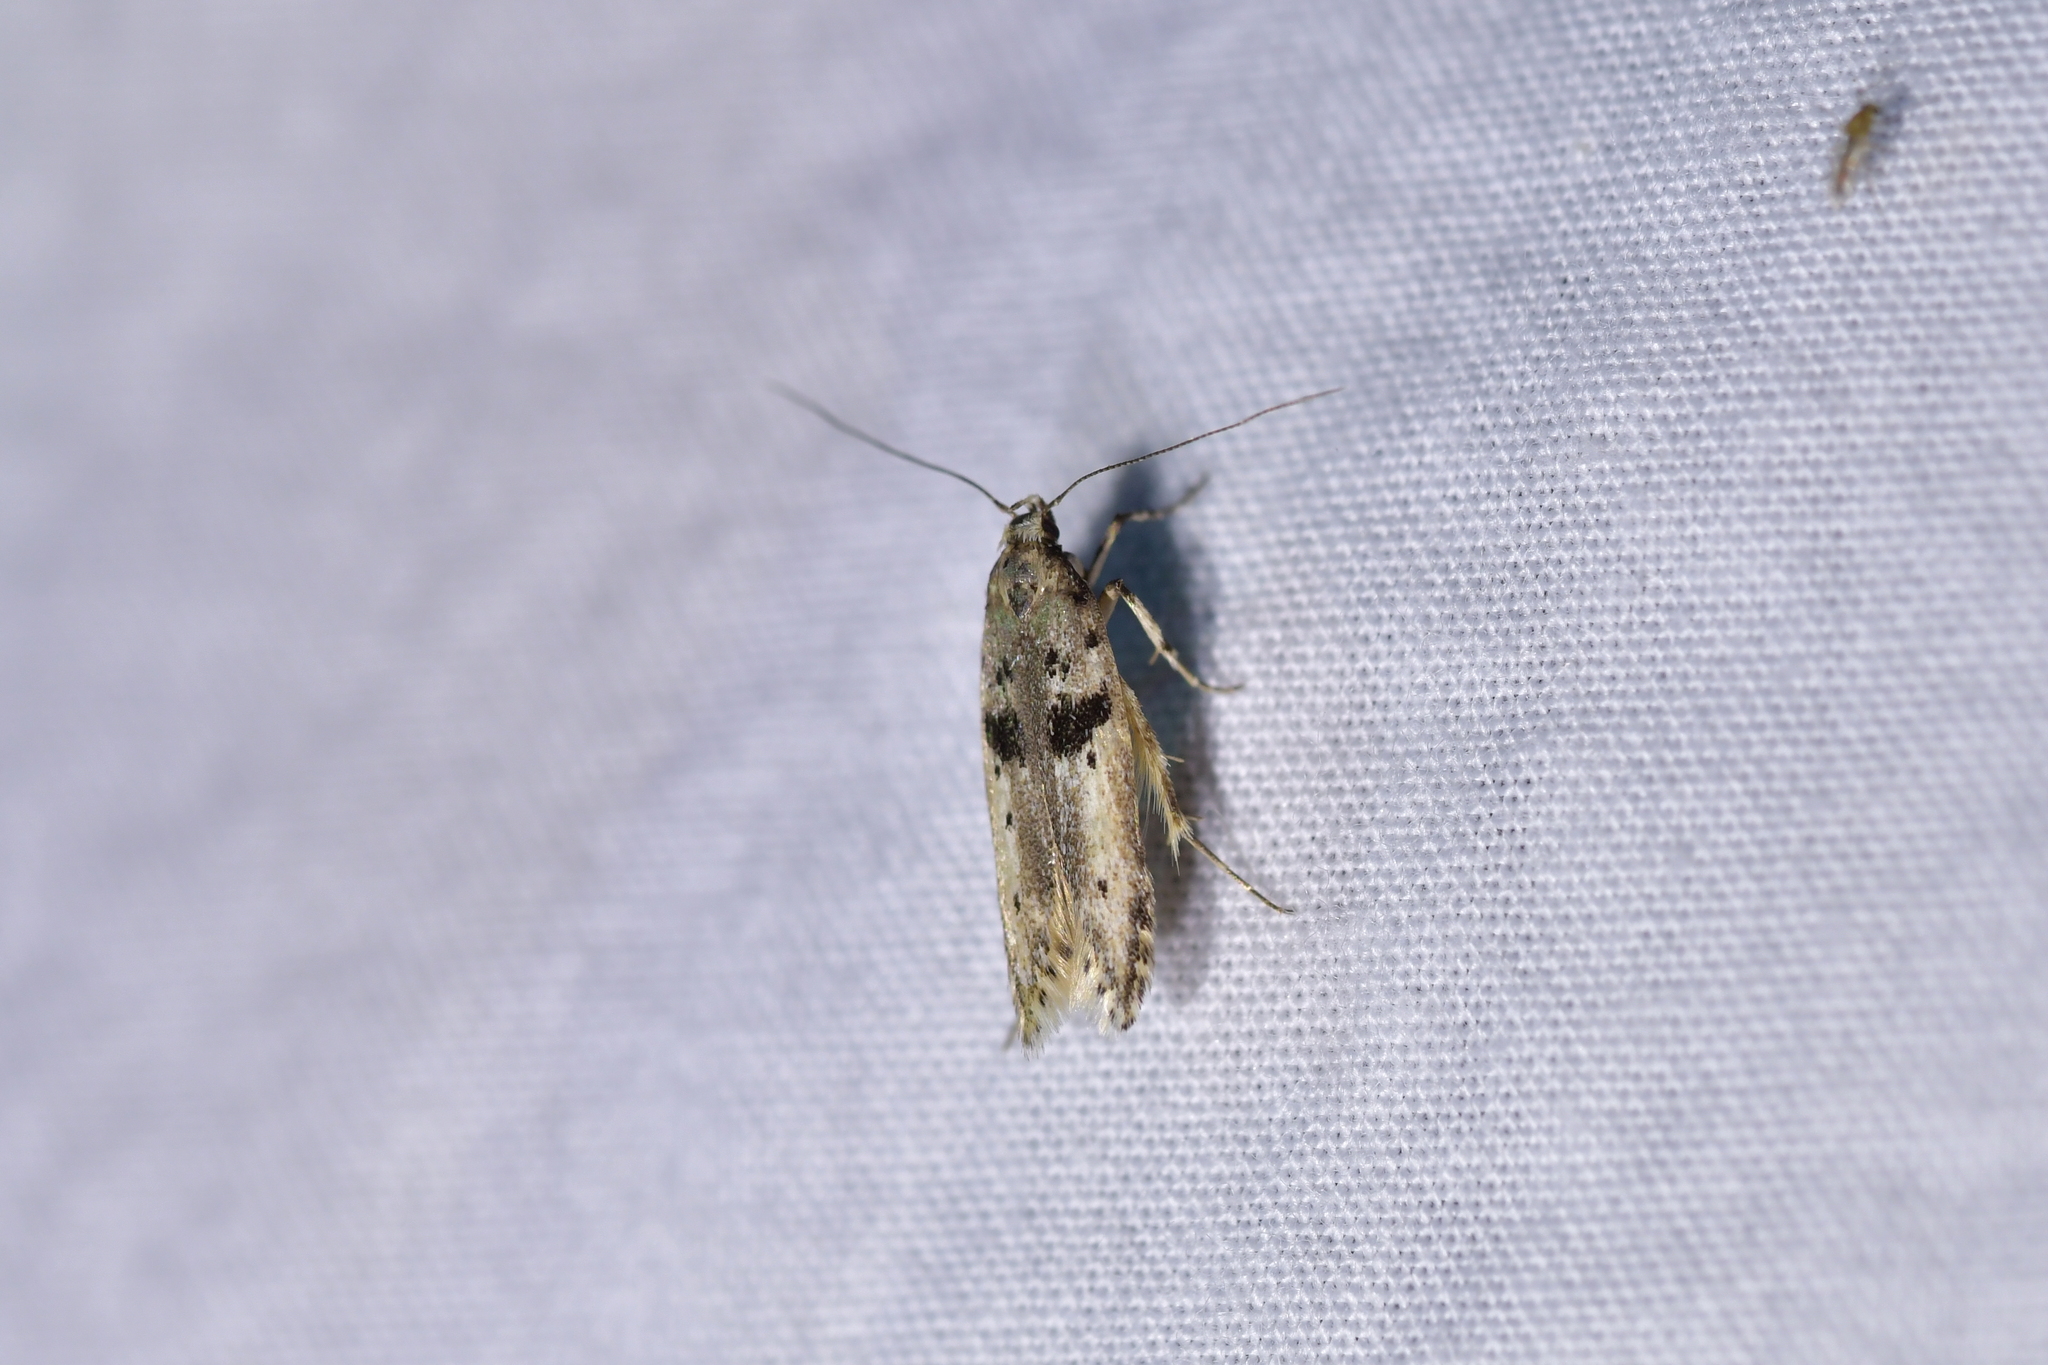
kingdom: Animalia
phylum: Arthropoda
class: Insecta
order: Lepidoptera
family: Gelechiidae
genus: Aristotelia
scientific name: Aristotelia paradesma
